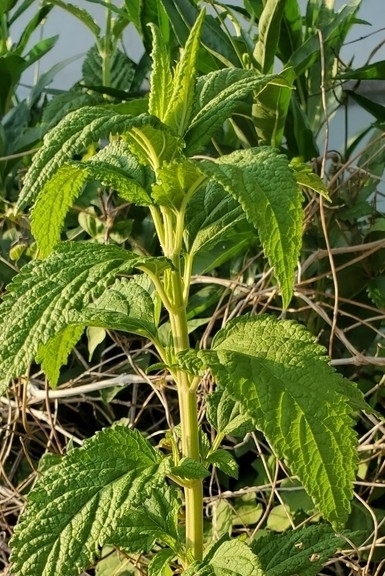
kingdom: Plantae
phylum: Tracheophyta
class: Magnoliopsida
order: Lamiales
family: Lamiaceae
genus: Teucrium
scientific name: Teucrium canadense
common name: American germander
